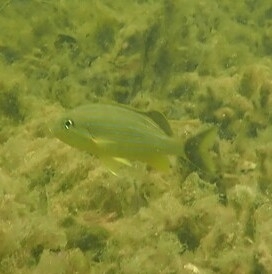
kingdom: Animalia
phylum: Chordata
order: Perciformes
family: Haemulidae
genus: Haemulon
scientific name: Haemulon sciurus
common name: Bluestriped grunt
